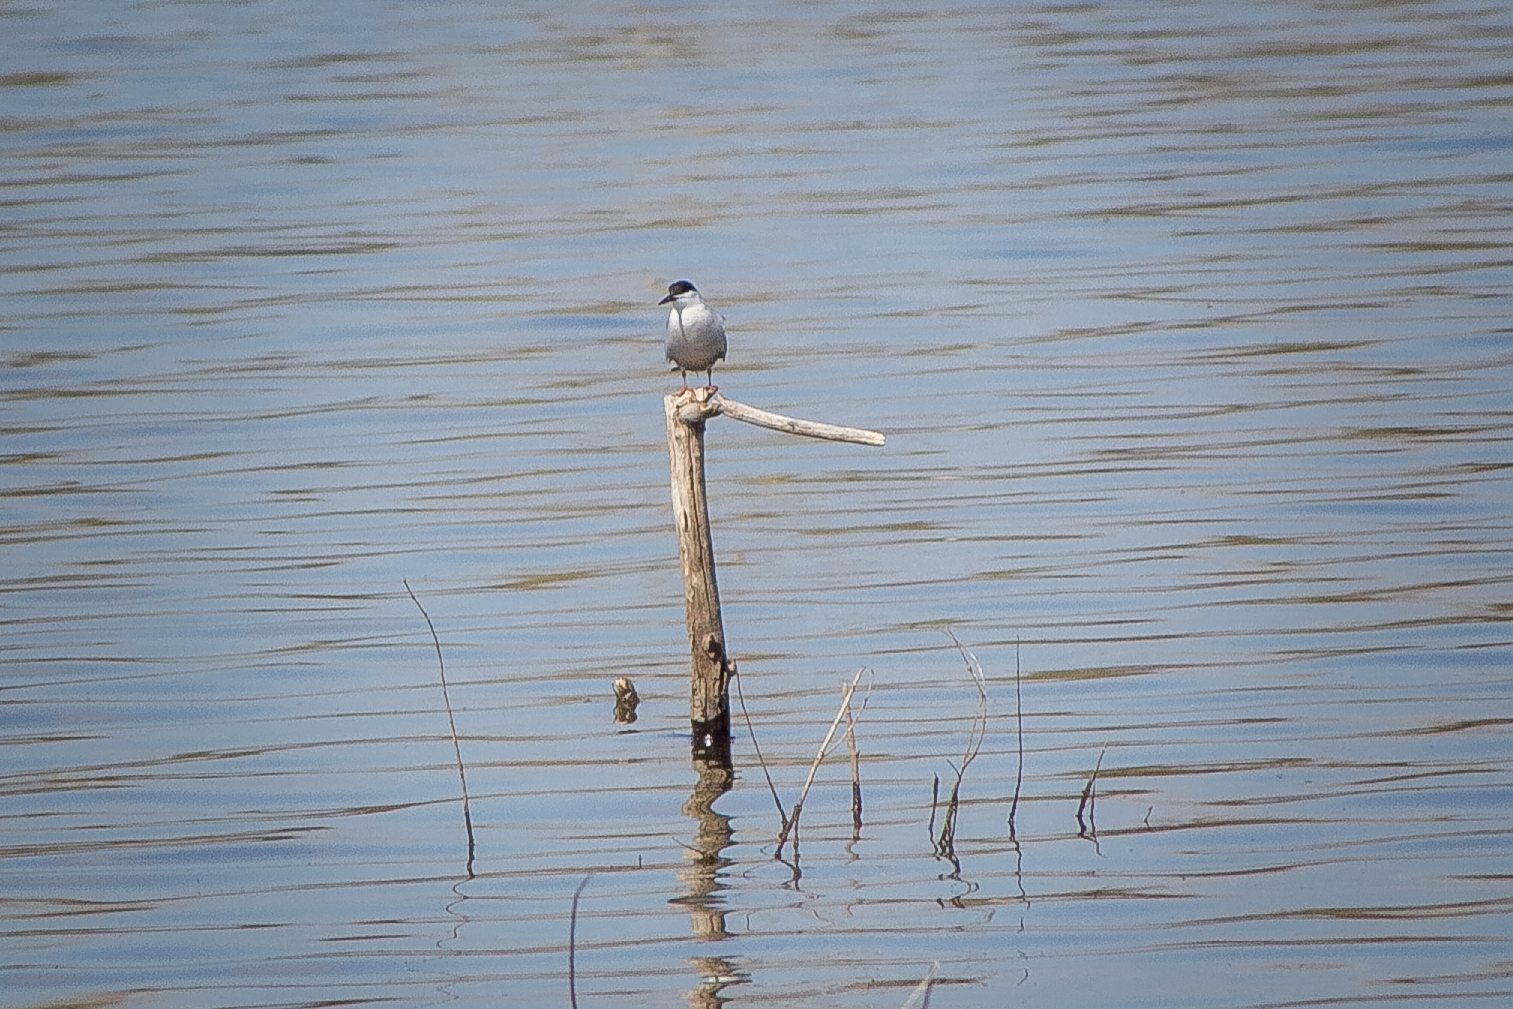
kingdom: Animalia
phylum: Chordata
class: Aves
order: Charadriiformes
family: Laridae
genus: Sterna
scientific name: Sterna hirundo
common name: Common tern
